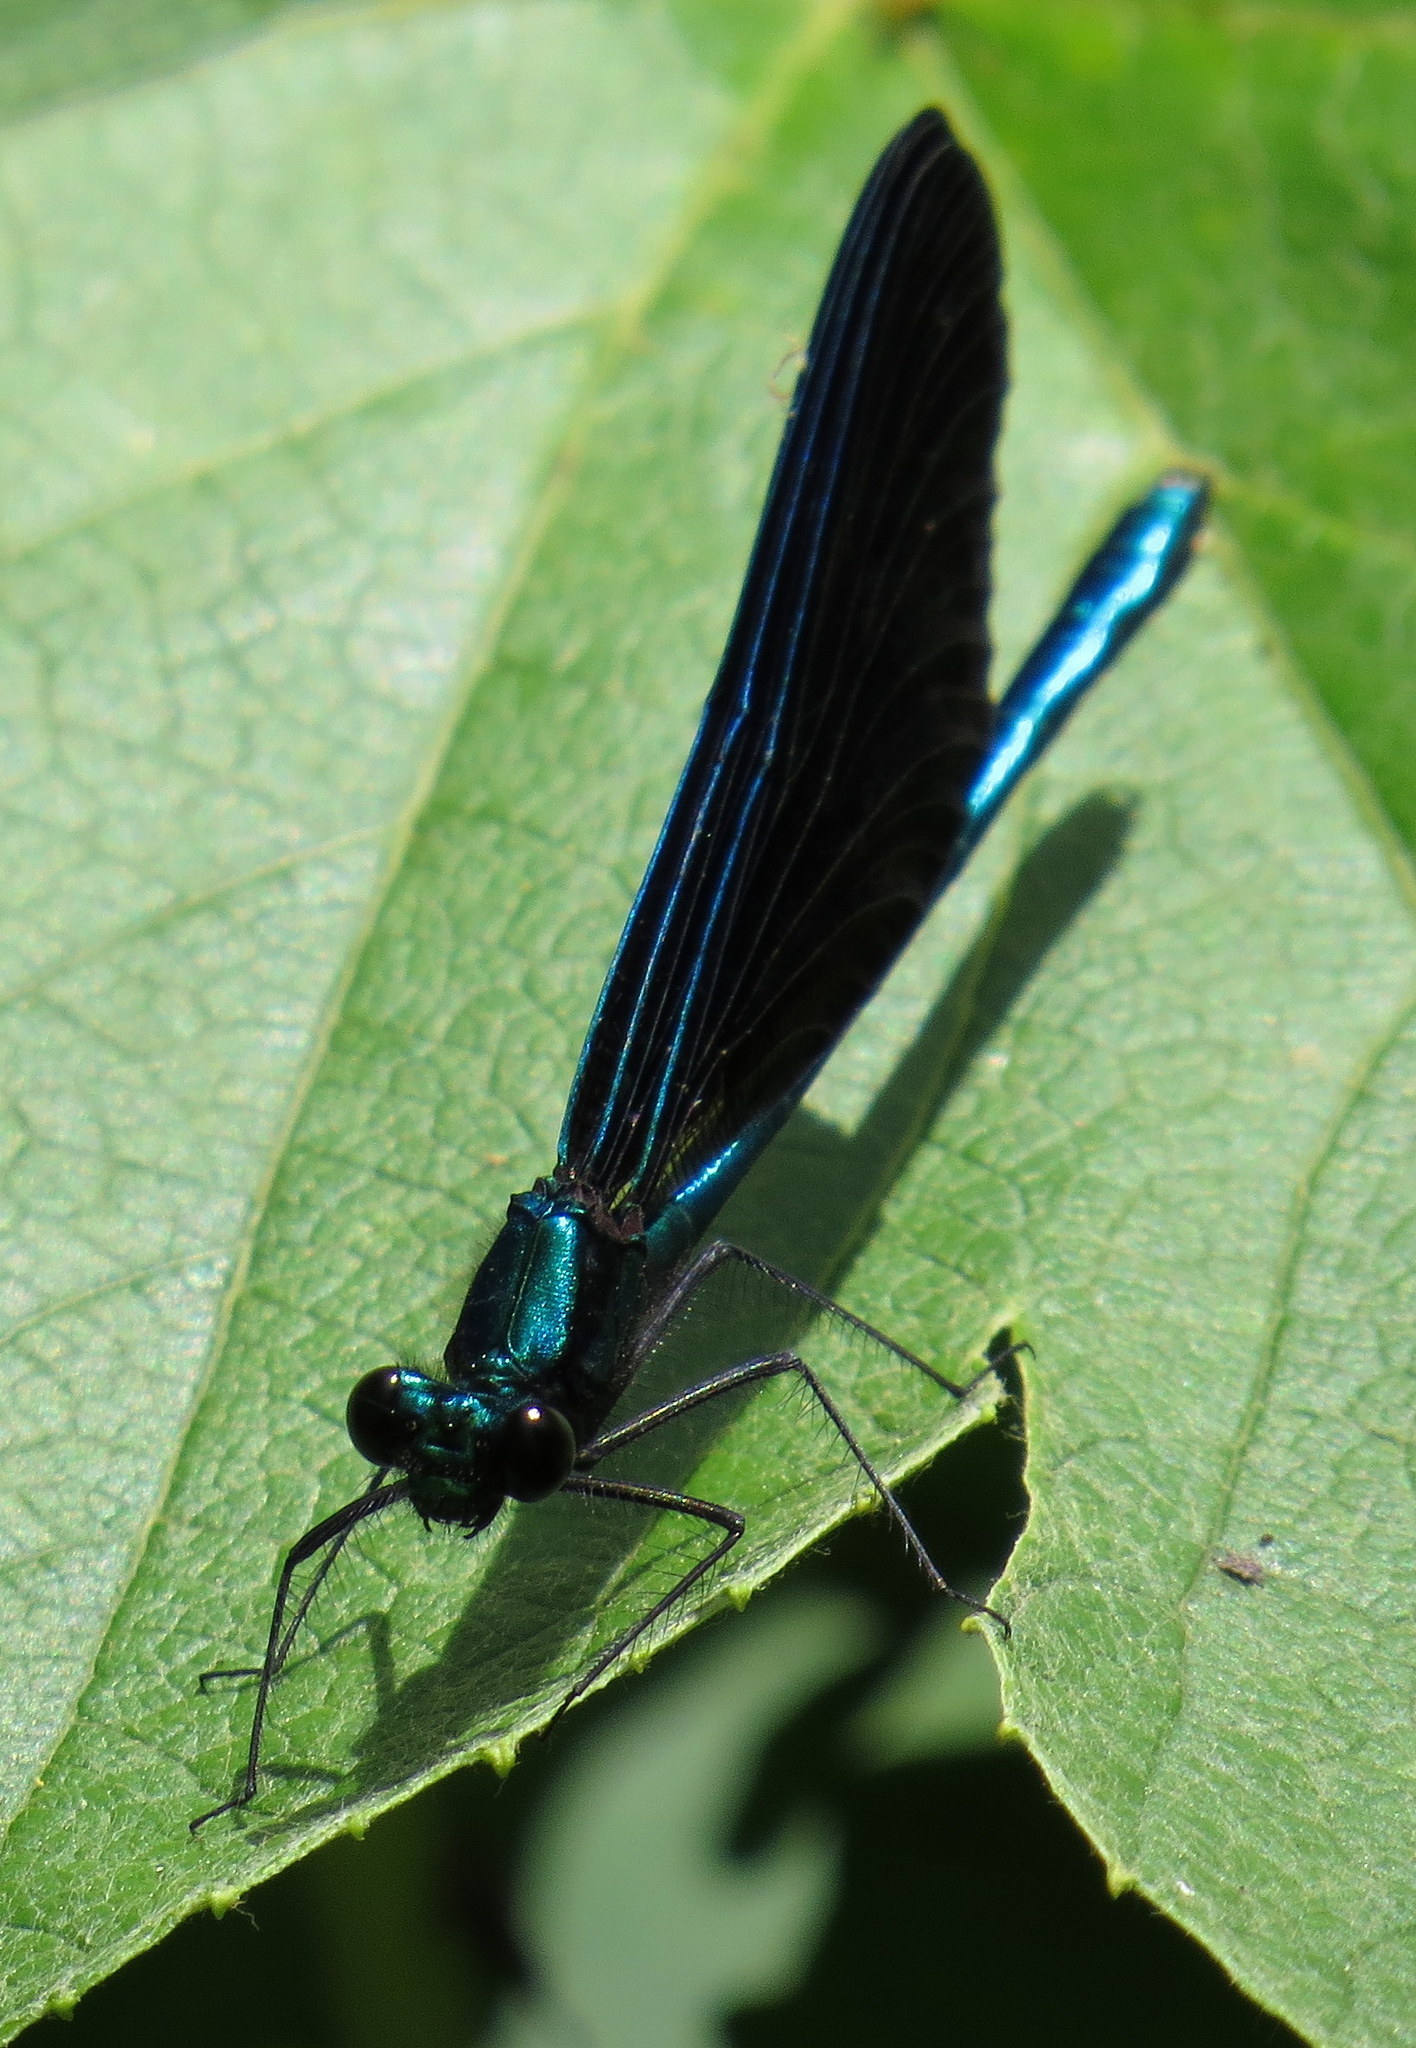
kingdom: Animalia
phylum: Arthropoda
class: Insecta
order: Odonata
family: Calopterygidae
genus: Calopteryx
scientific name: Calopteryx maculata
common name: Ebony jewelwing
